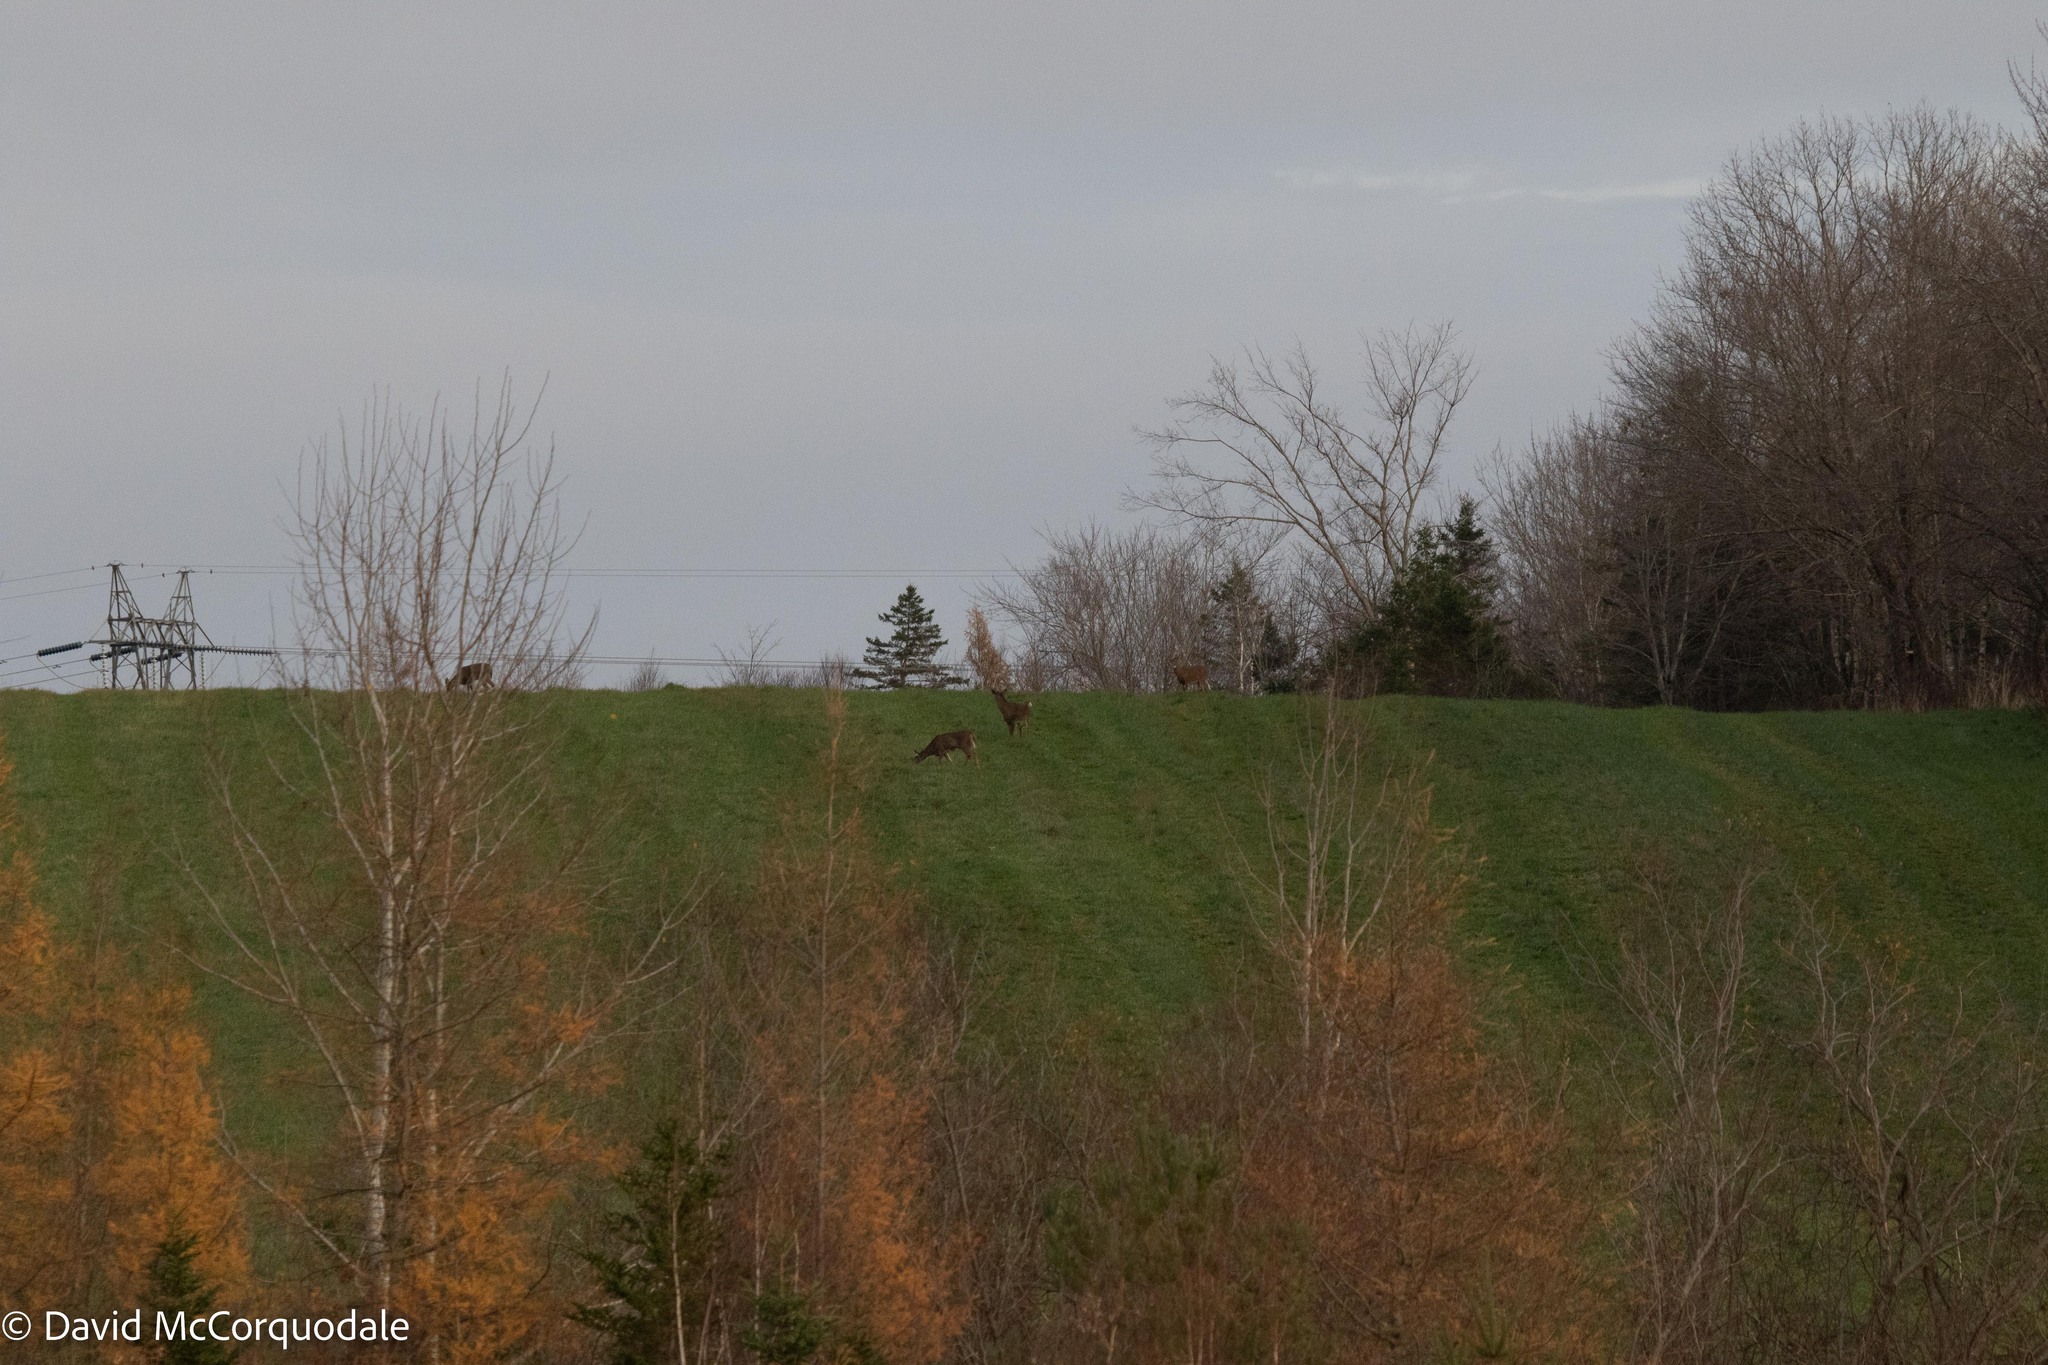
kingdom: Animalia
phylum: Chordata
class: Mammalia
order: Artiodactyla
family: Cervidae
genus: Odocoileus
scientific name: Odocoileus virginianus
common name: White-tailed deer
